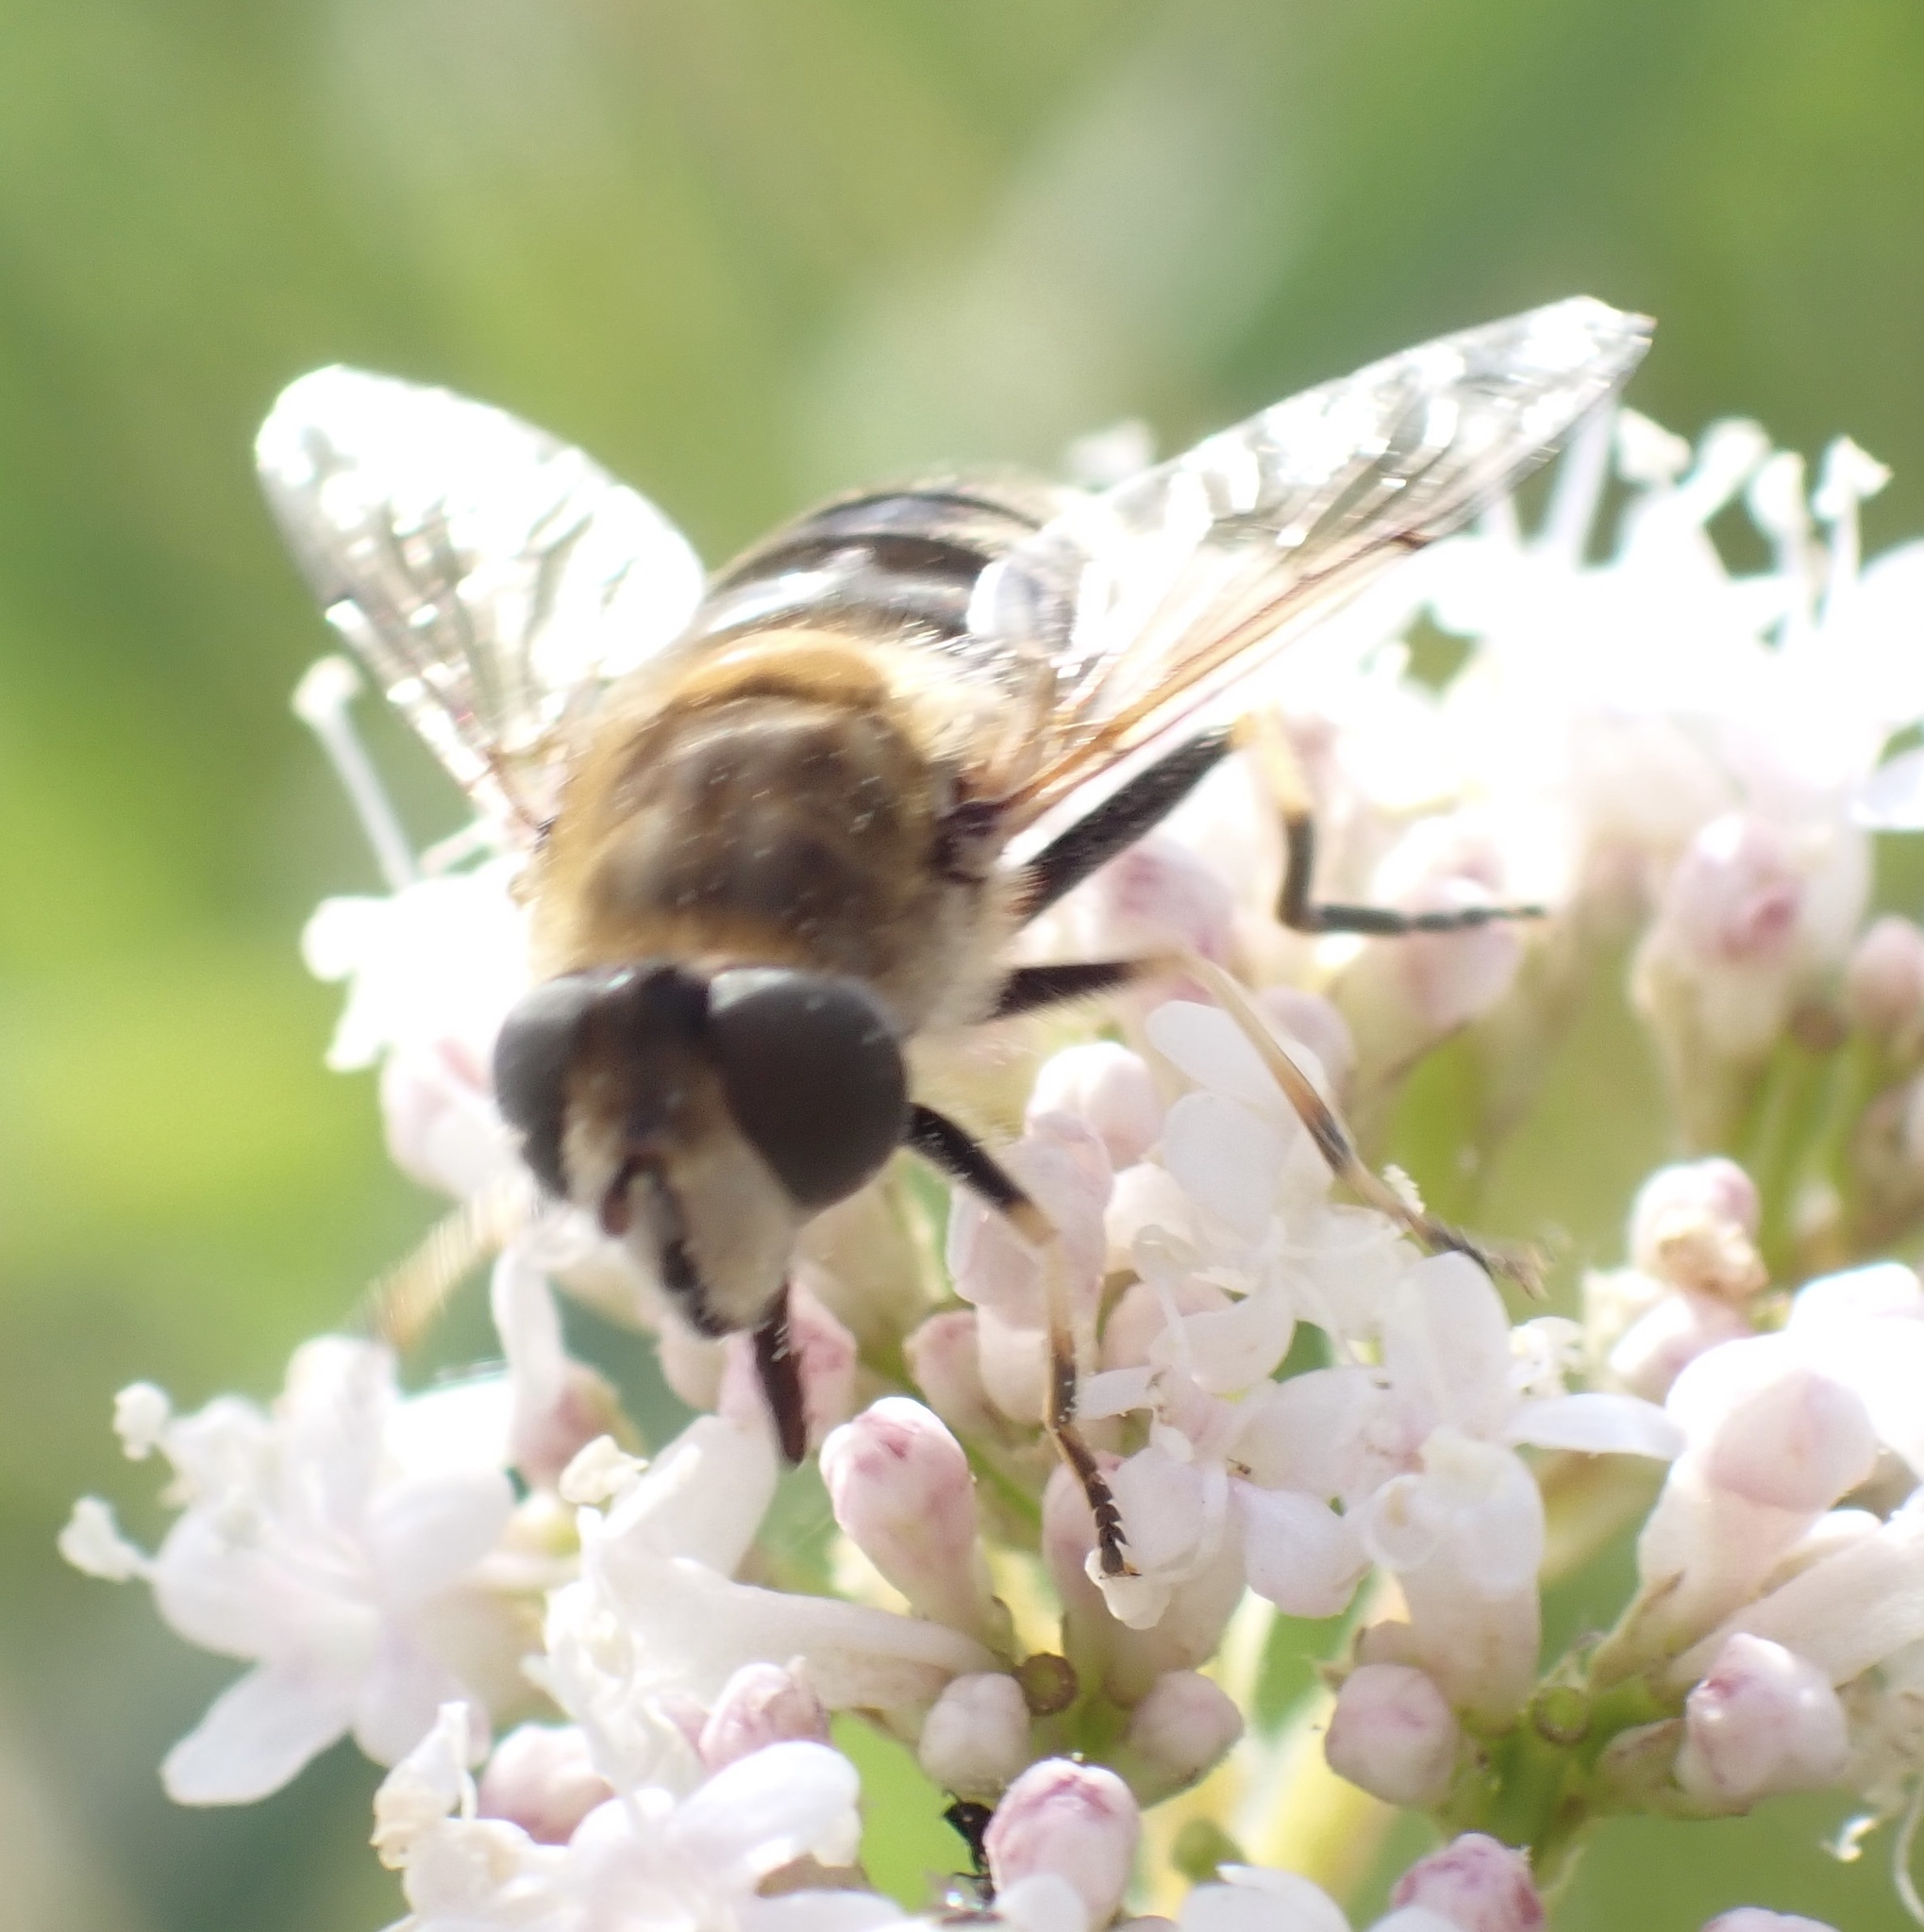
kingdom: Animalia
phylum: Arthropoda
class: Insecta
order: Diptera
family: Syrphidae
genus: Eristalis
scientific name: Eristalis nemorum
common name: Orange-spined drone fly
